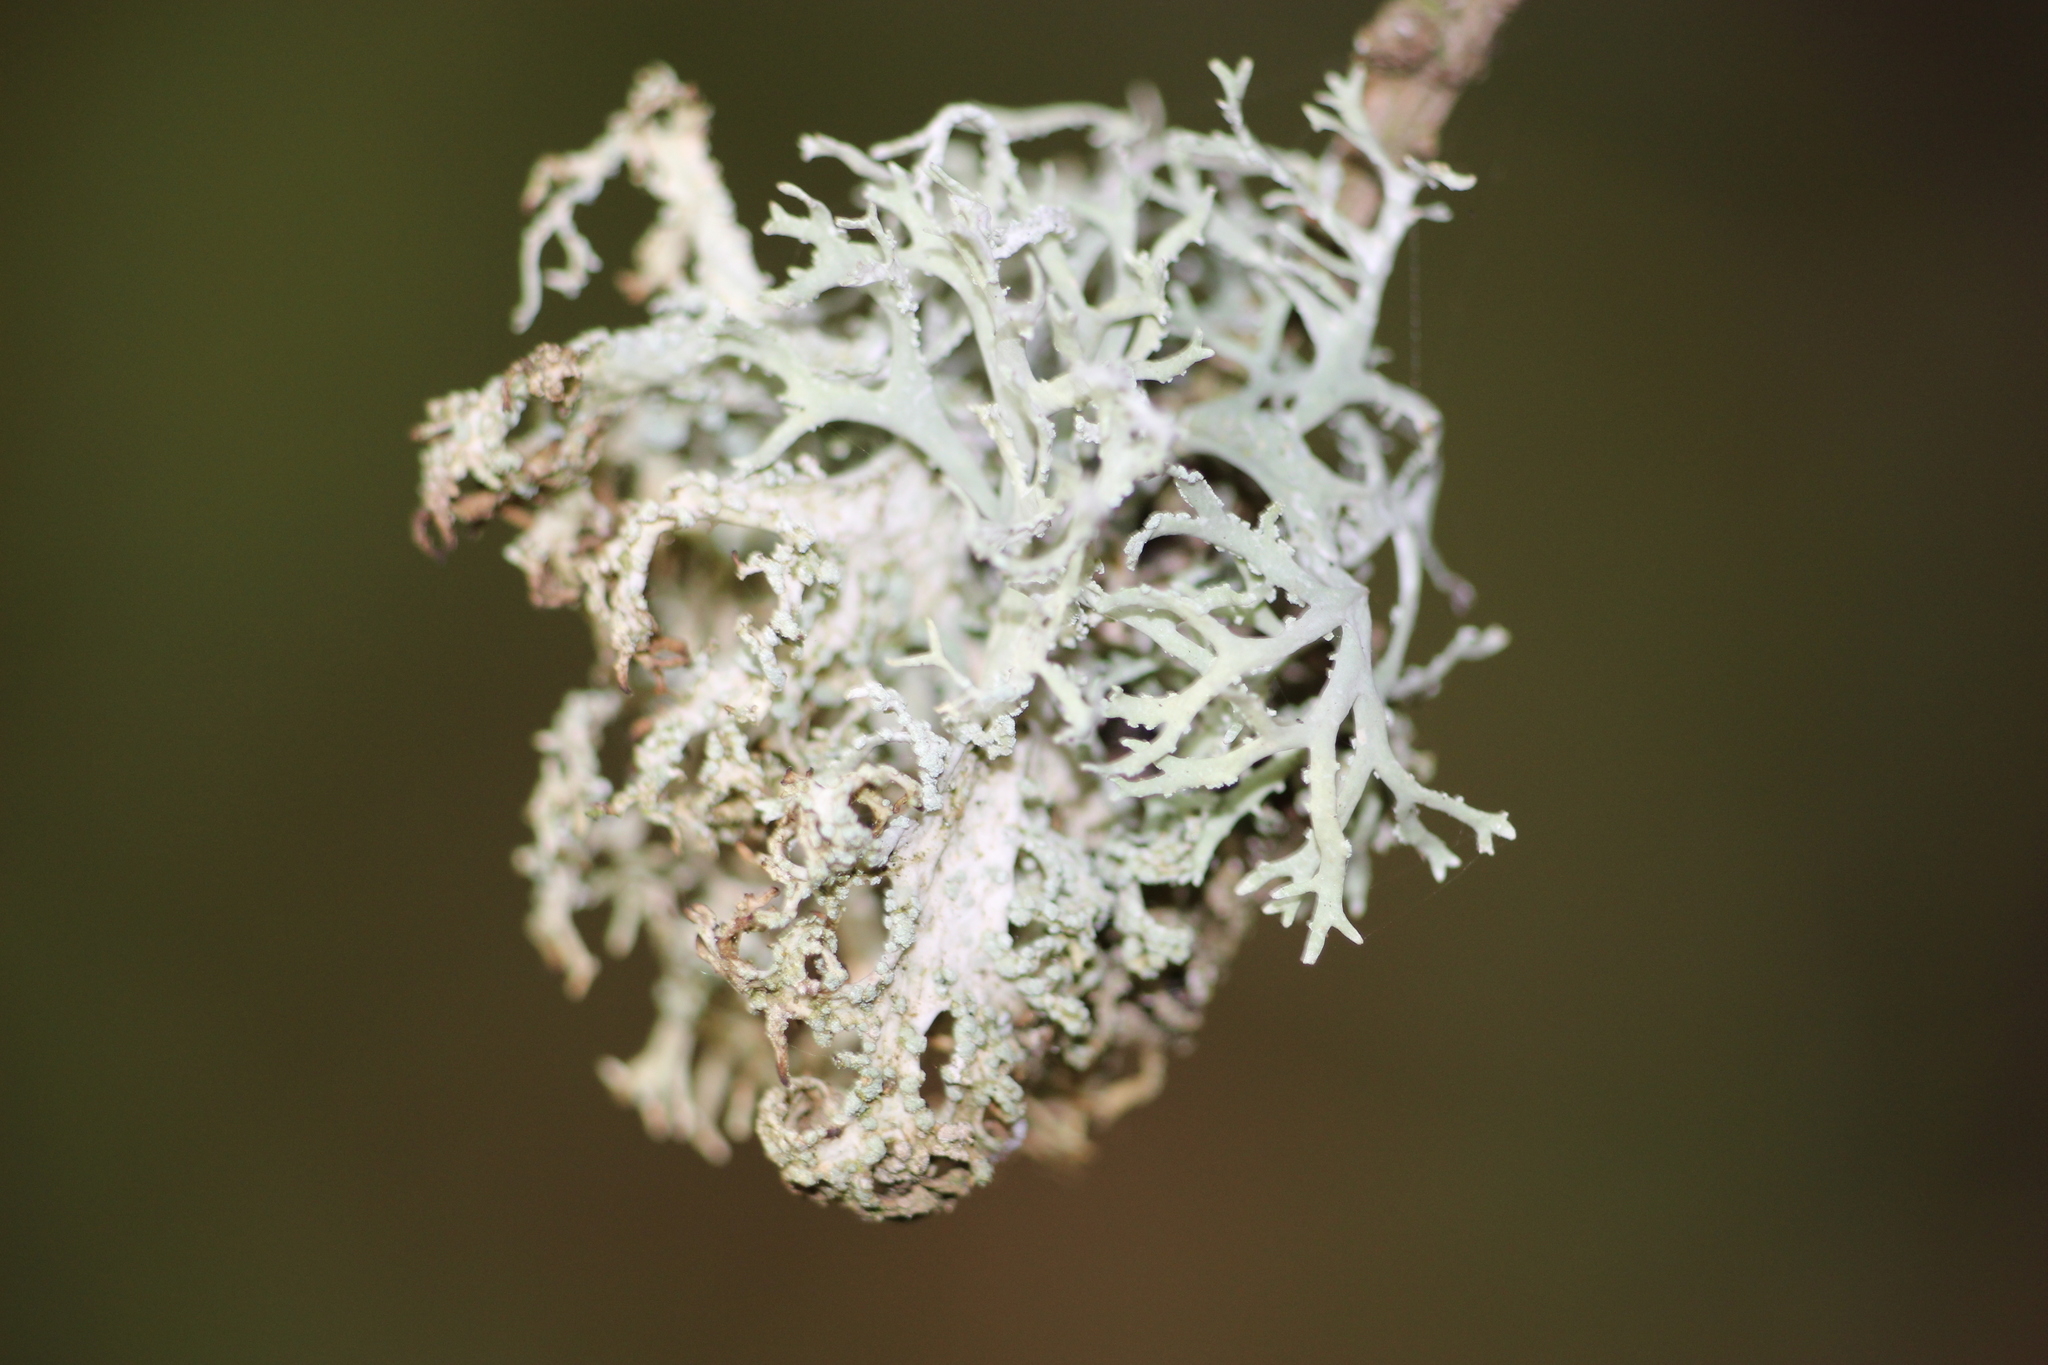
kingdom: Fungi
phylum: Ascomycota
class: Lecanoromycetes
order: Lecanorales
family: Parmeliaceae
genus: Evernia
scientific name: Evernia prunastri
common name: Oak moss
